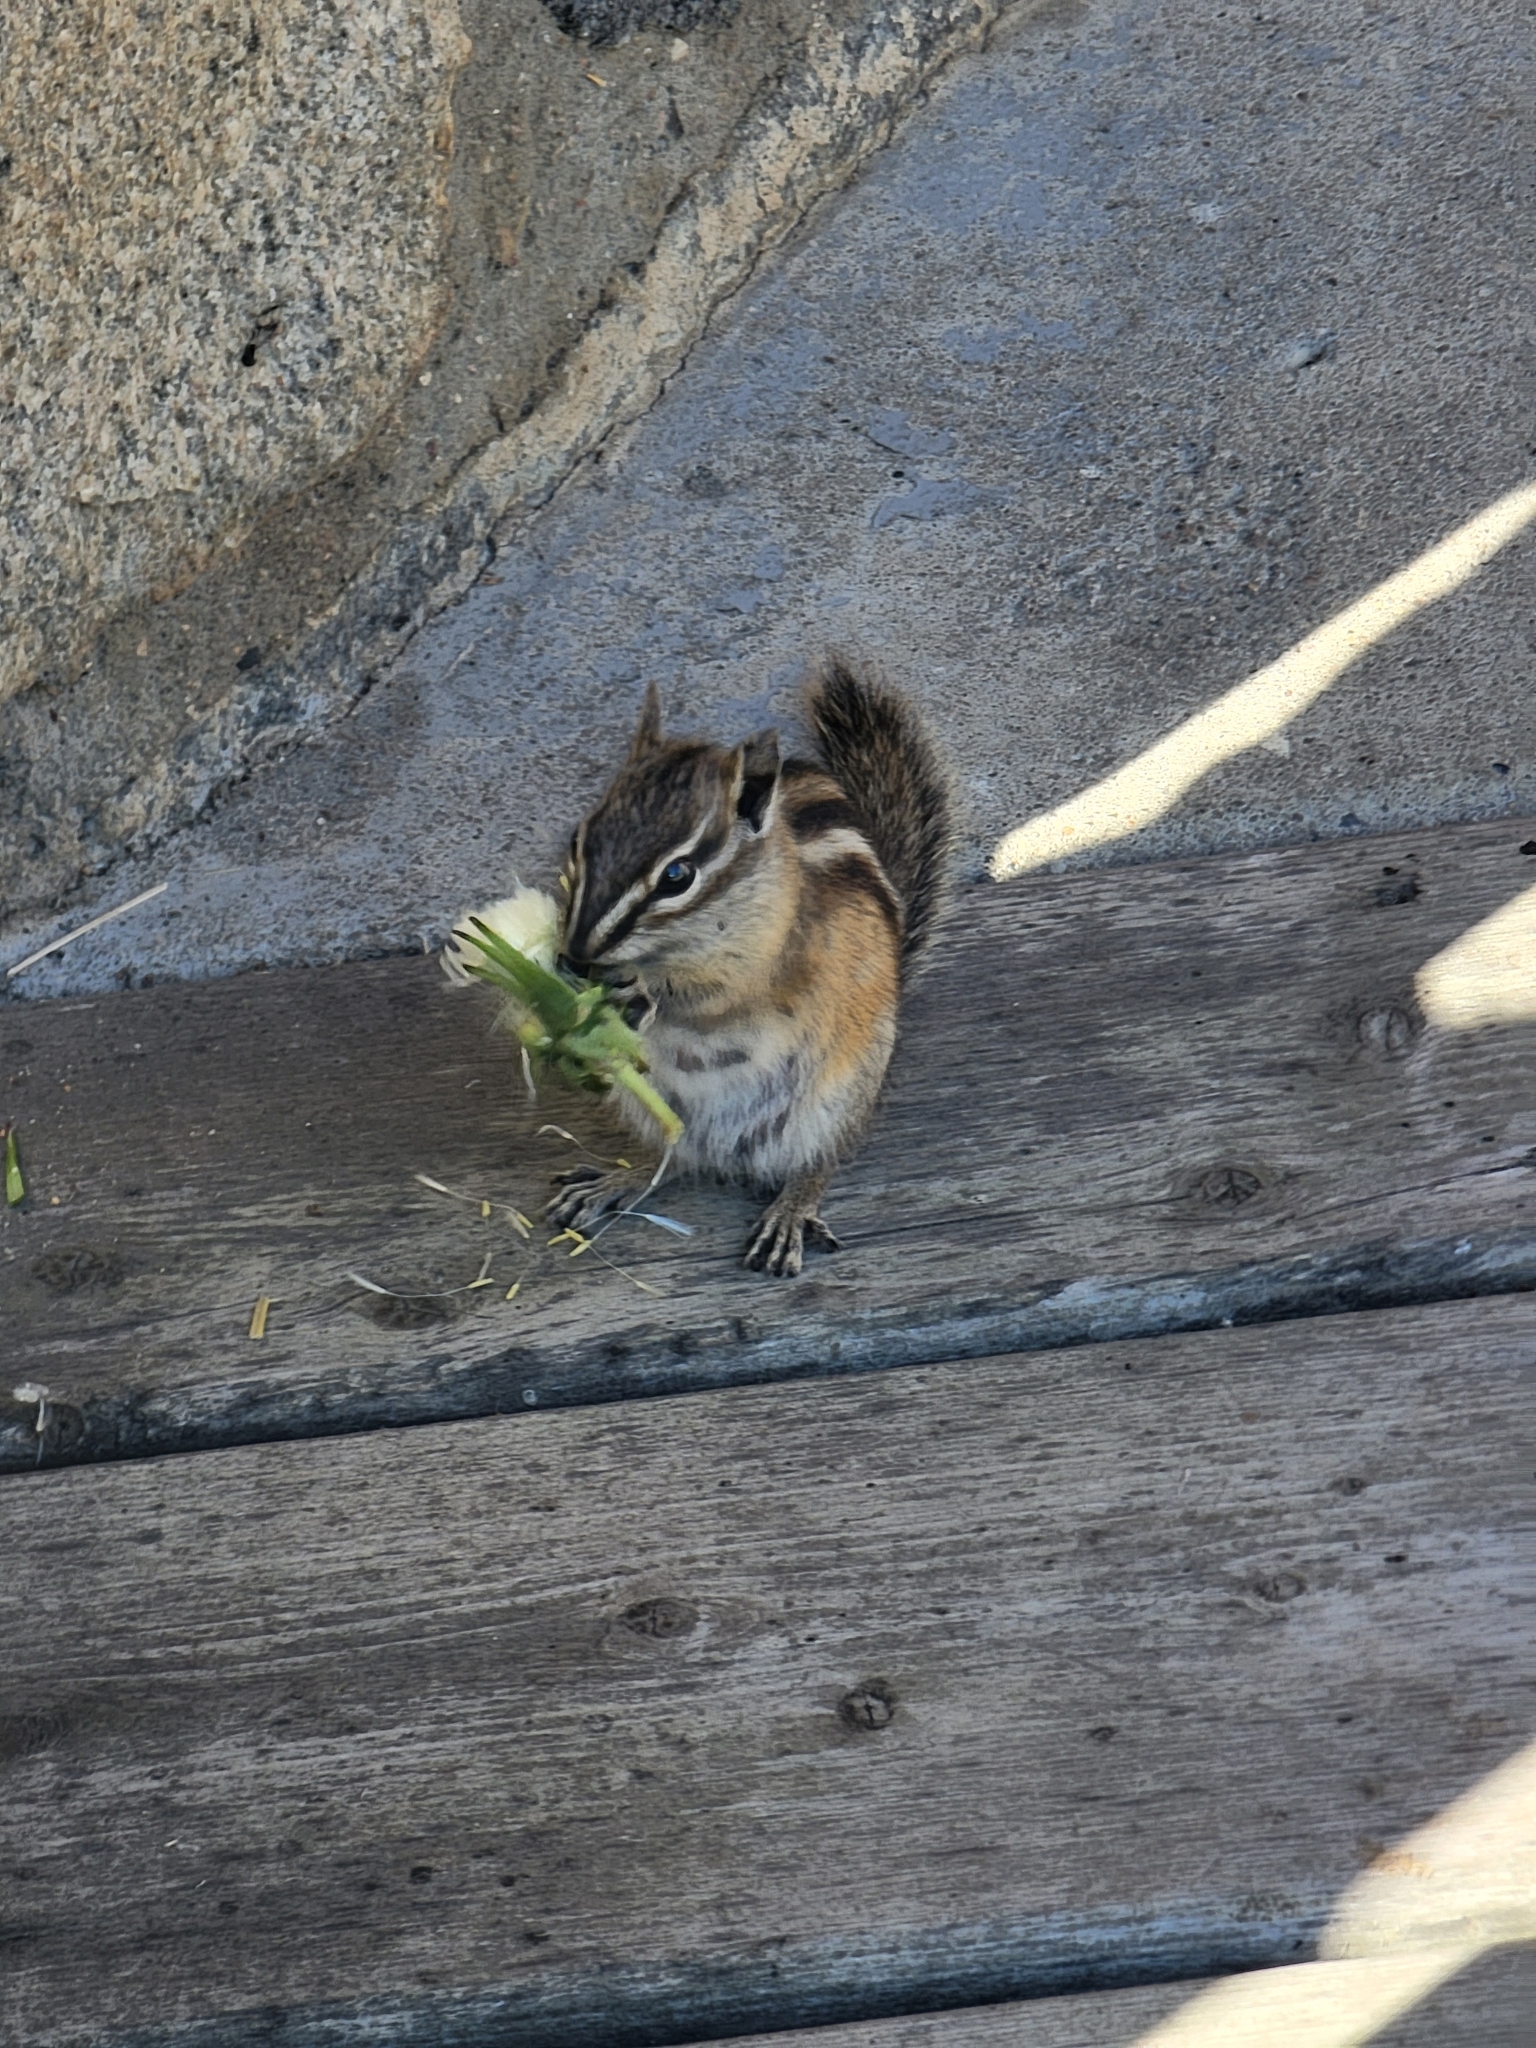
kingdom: Animalia
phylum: Chordata
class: Mammalia
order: Rodentia
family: Sciuridae
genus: Tamias
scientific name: Tamias minimus
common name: Least chipmunk
